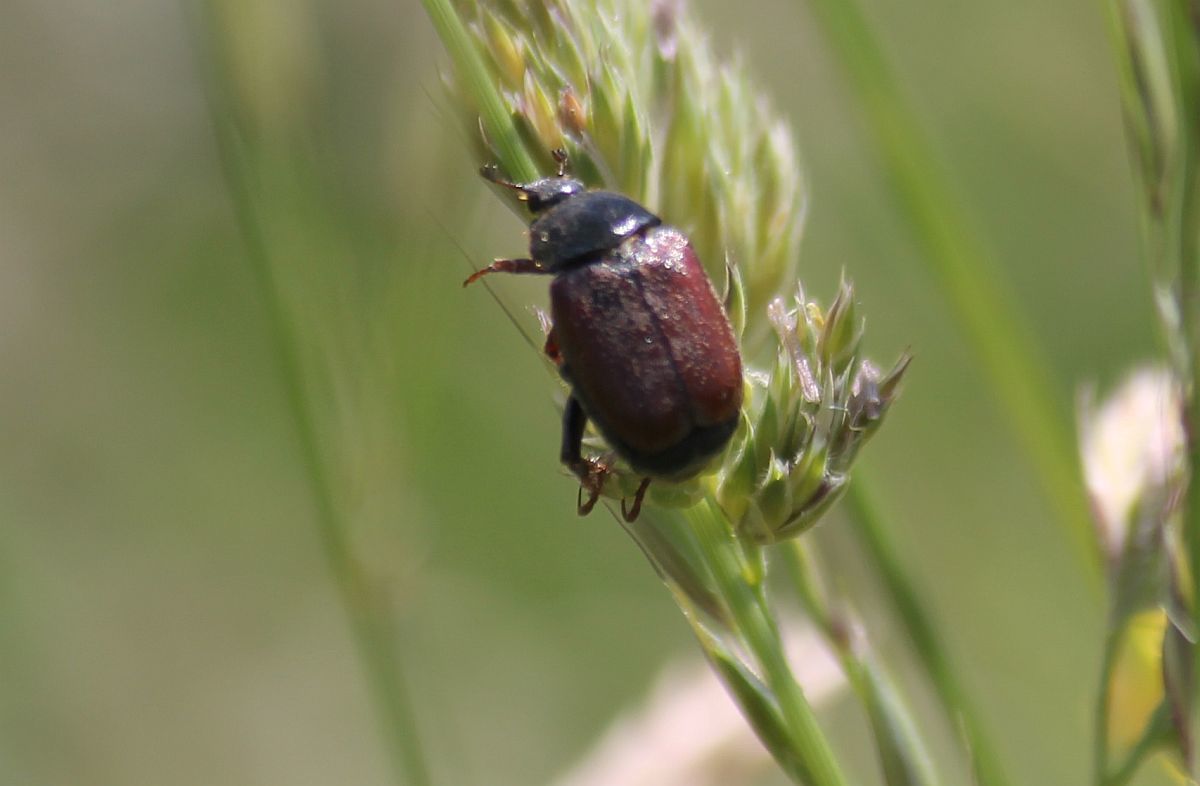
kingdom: Animalia
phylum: Arthropoda
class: Insecta
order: Coleoptera
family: Scarabaeidae
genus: Hoplia
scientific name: Hoplia philanthus
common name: Welsh chafer
